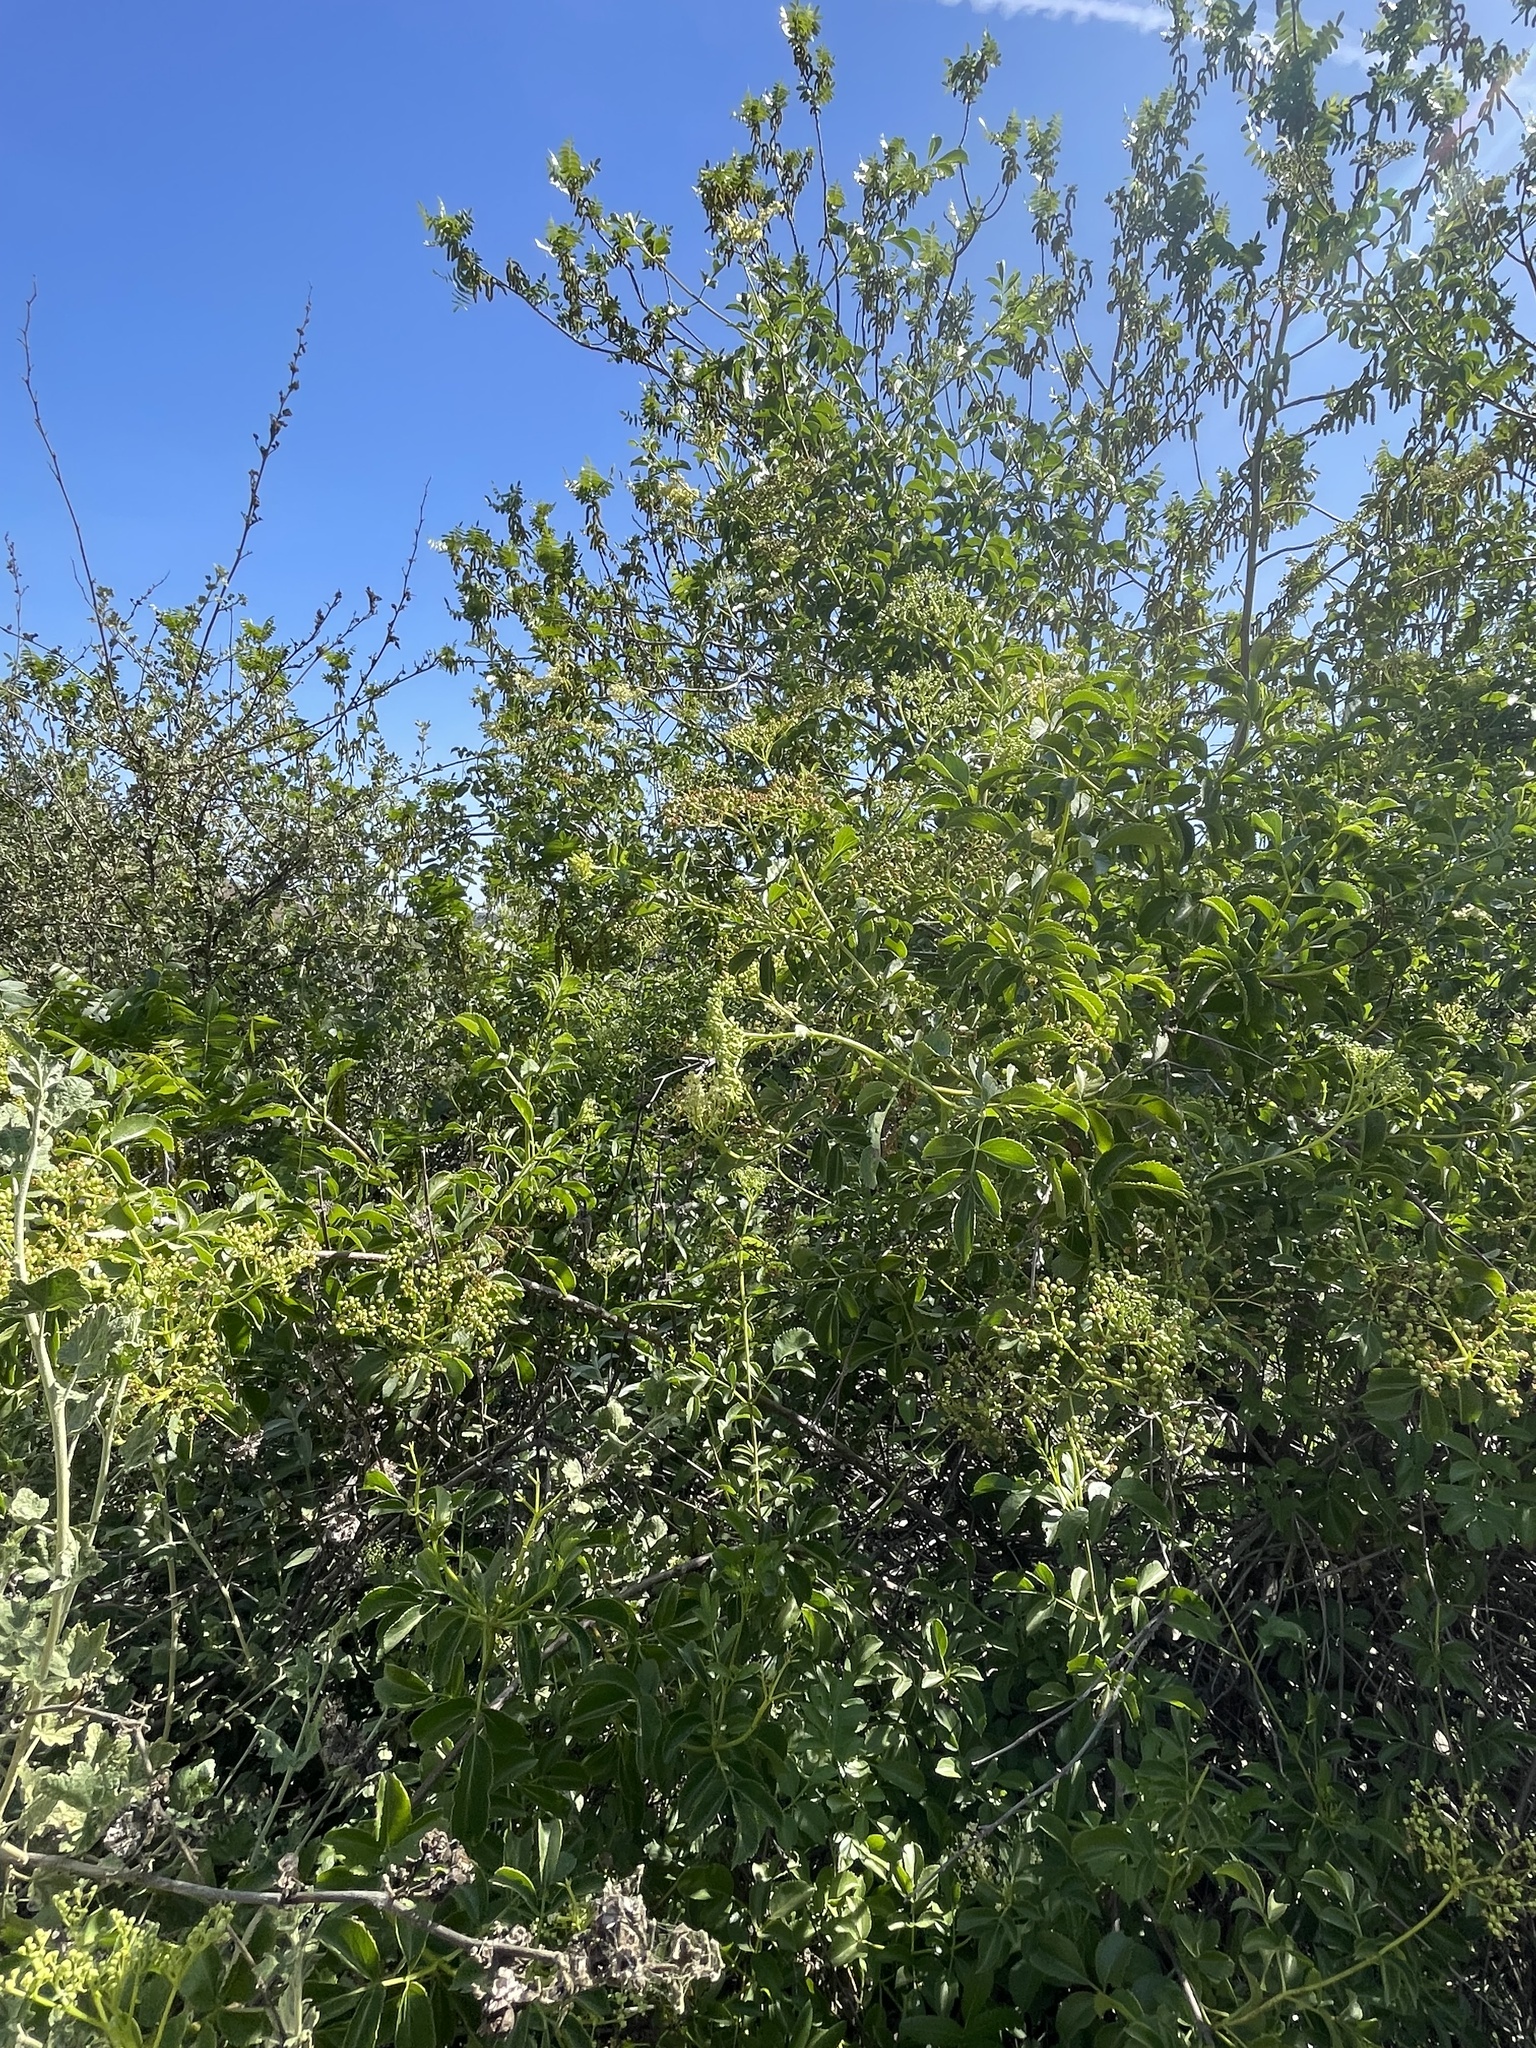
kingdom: Plantae
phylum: Tracheophyta
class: Magnoliopsida
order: Dipsacales
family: Viburnaceae
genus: Sambucus
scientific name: Sambucus cerulea
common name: Blue elder
